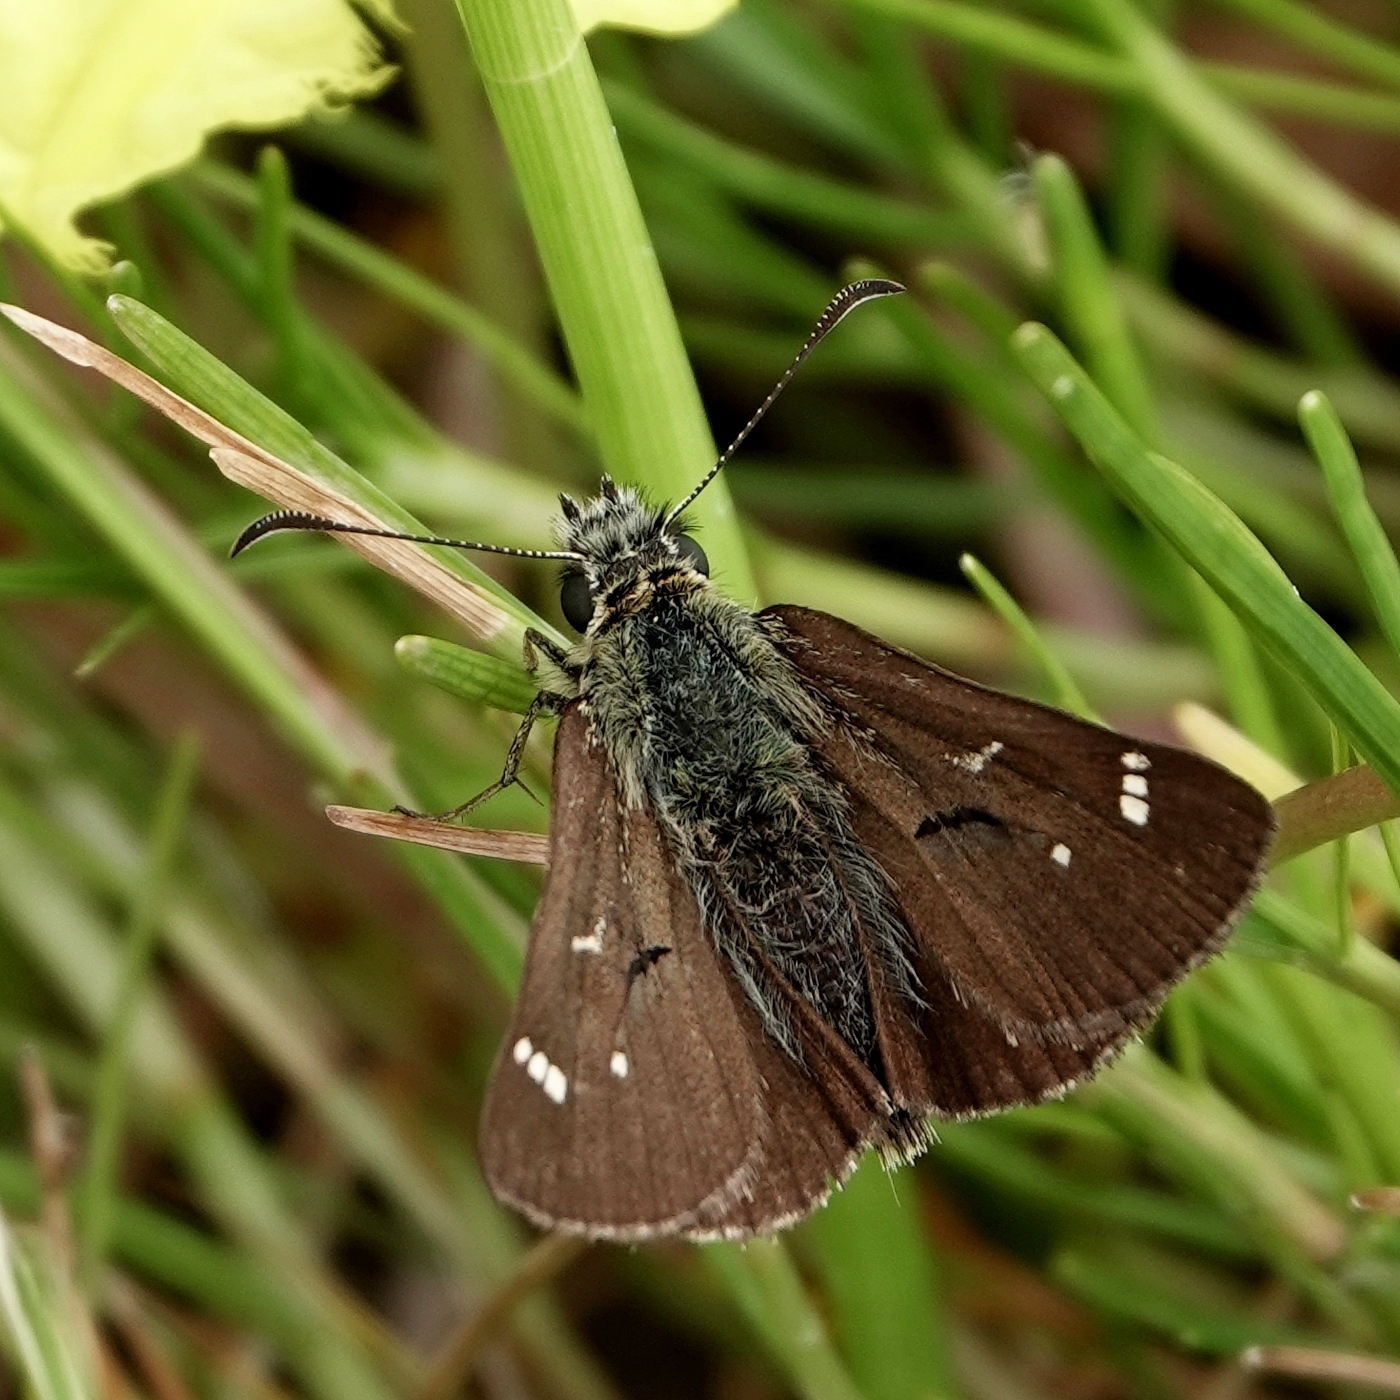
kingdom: Animalia
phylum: Arthropoda
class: Insecta
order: Lepidoptera
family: Hesperiidae
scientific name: Hesperiidae
